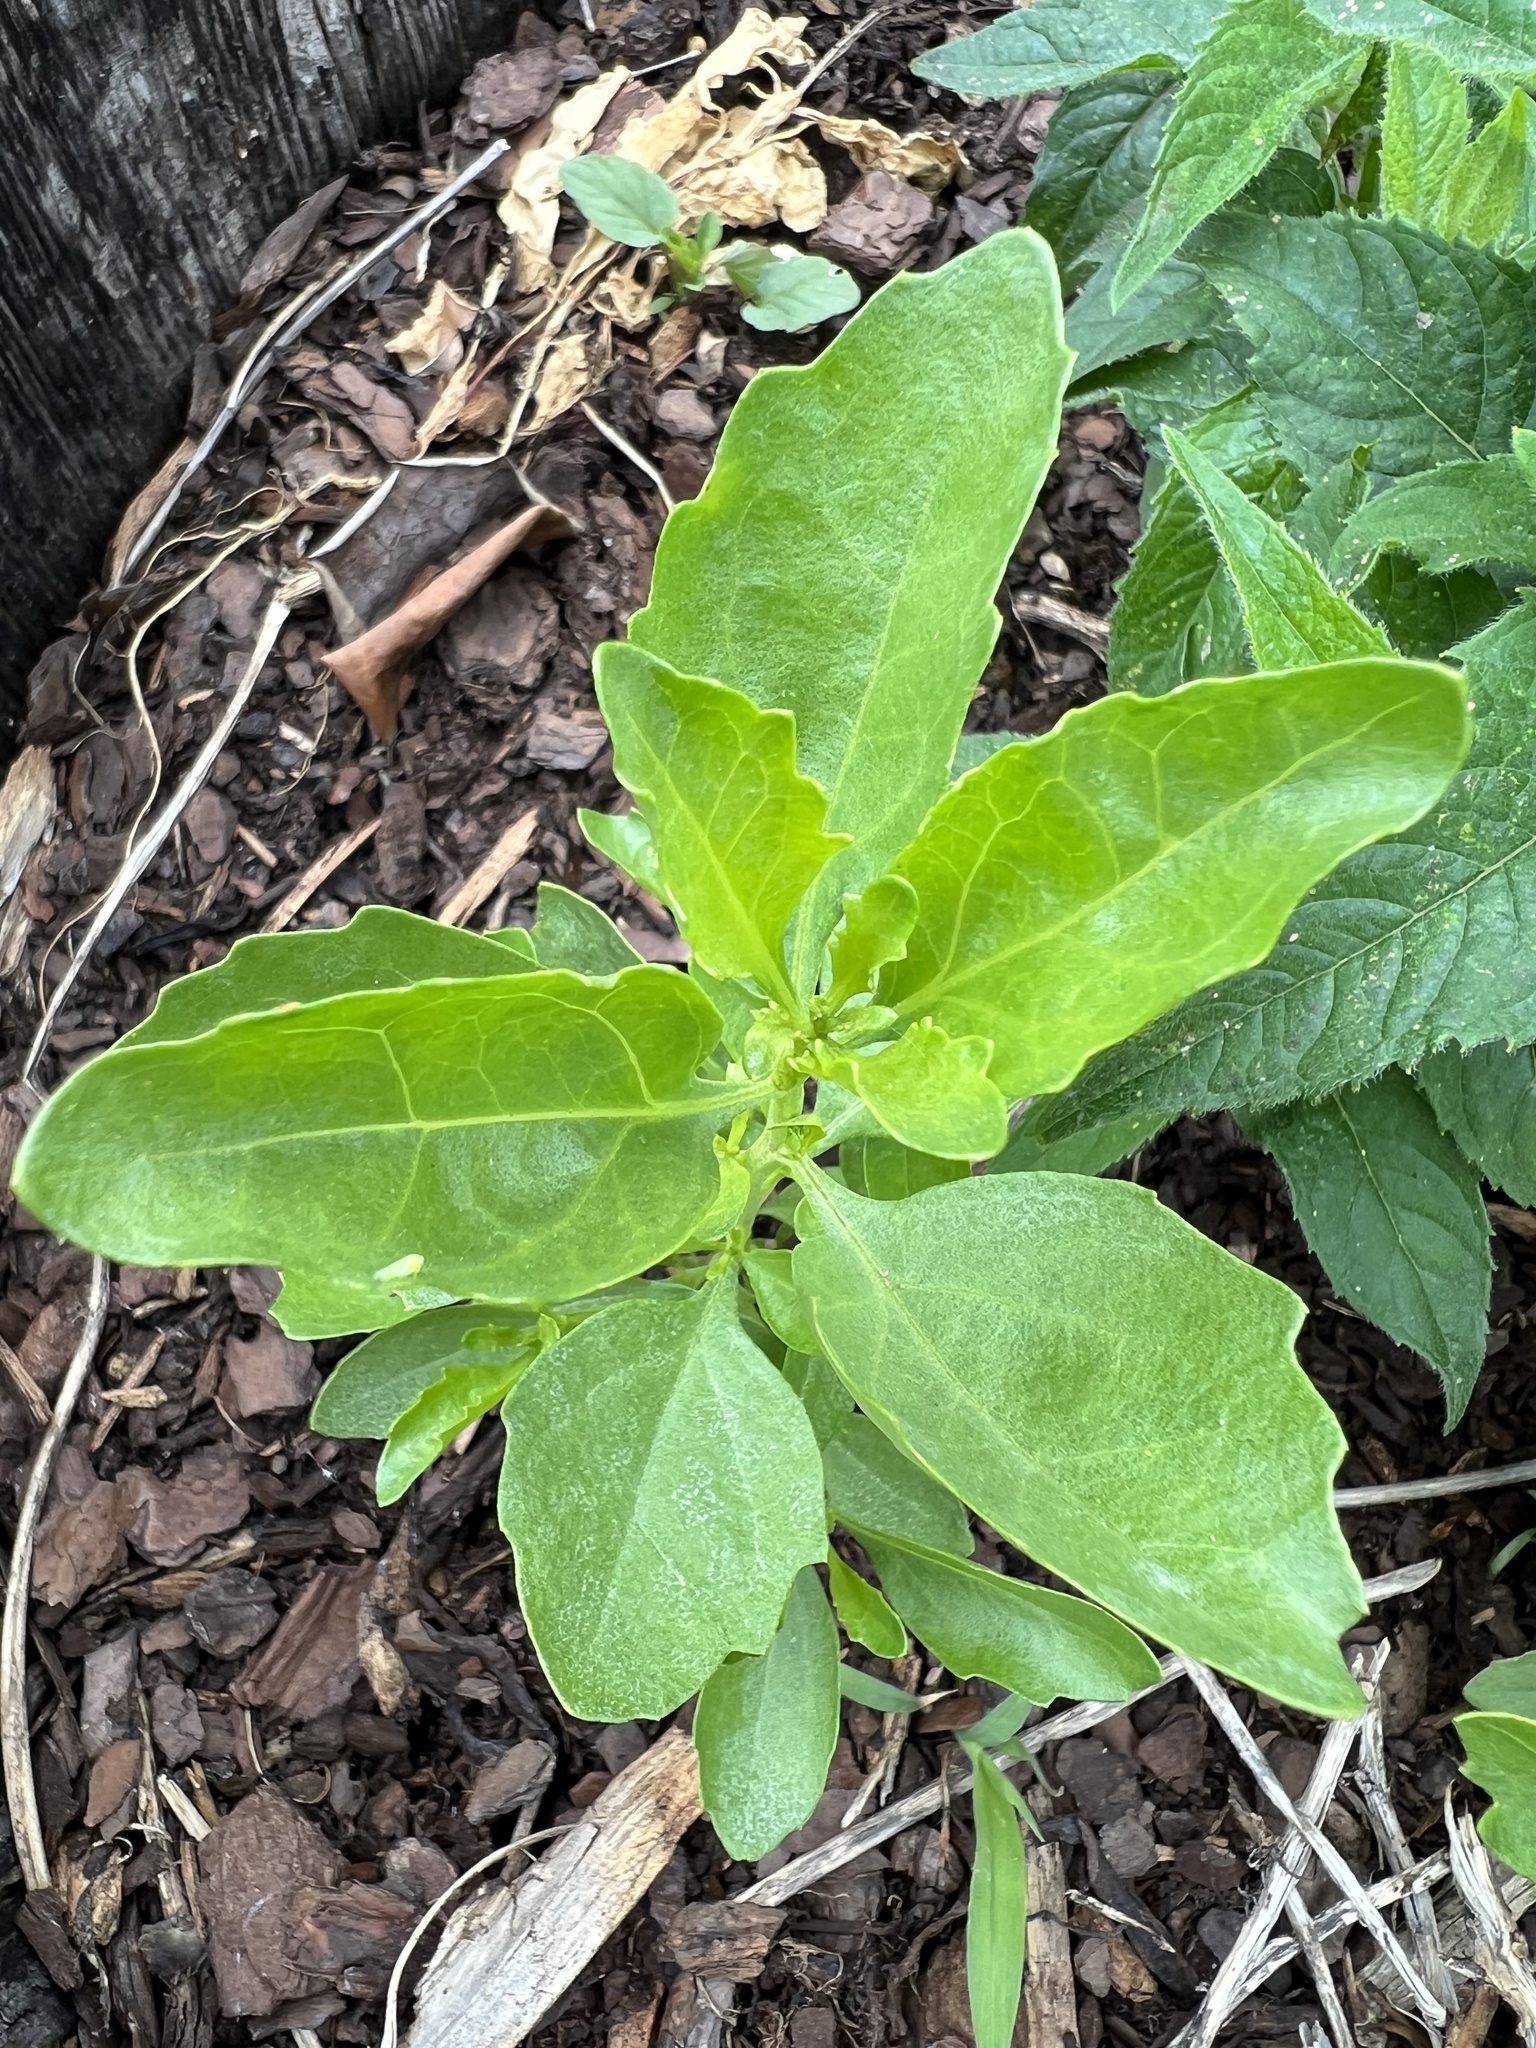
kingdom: Plantae
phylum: Tracheophyta
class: Magnoliopsida
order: Asterales
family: Asteraceae
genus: Baccharis
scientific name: Baccharis halimifolia
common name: Eastern baccharis
